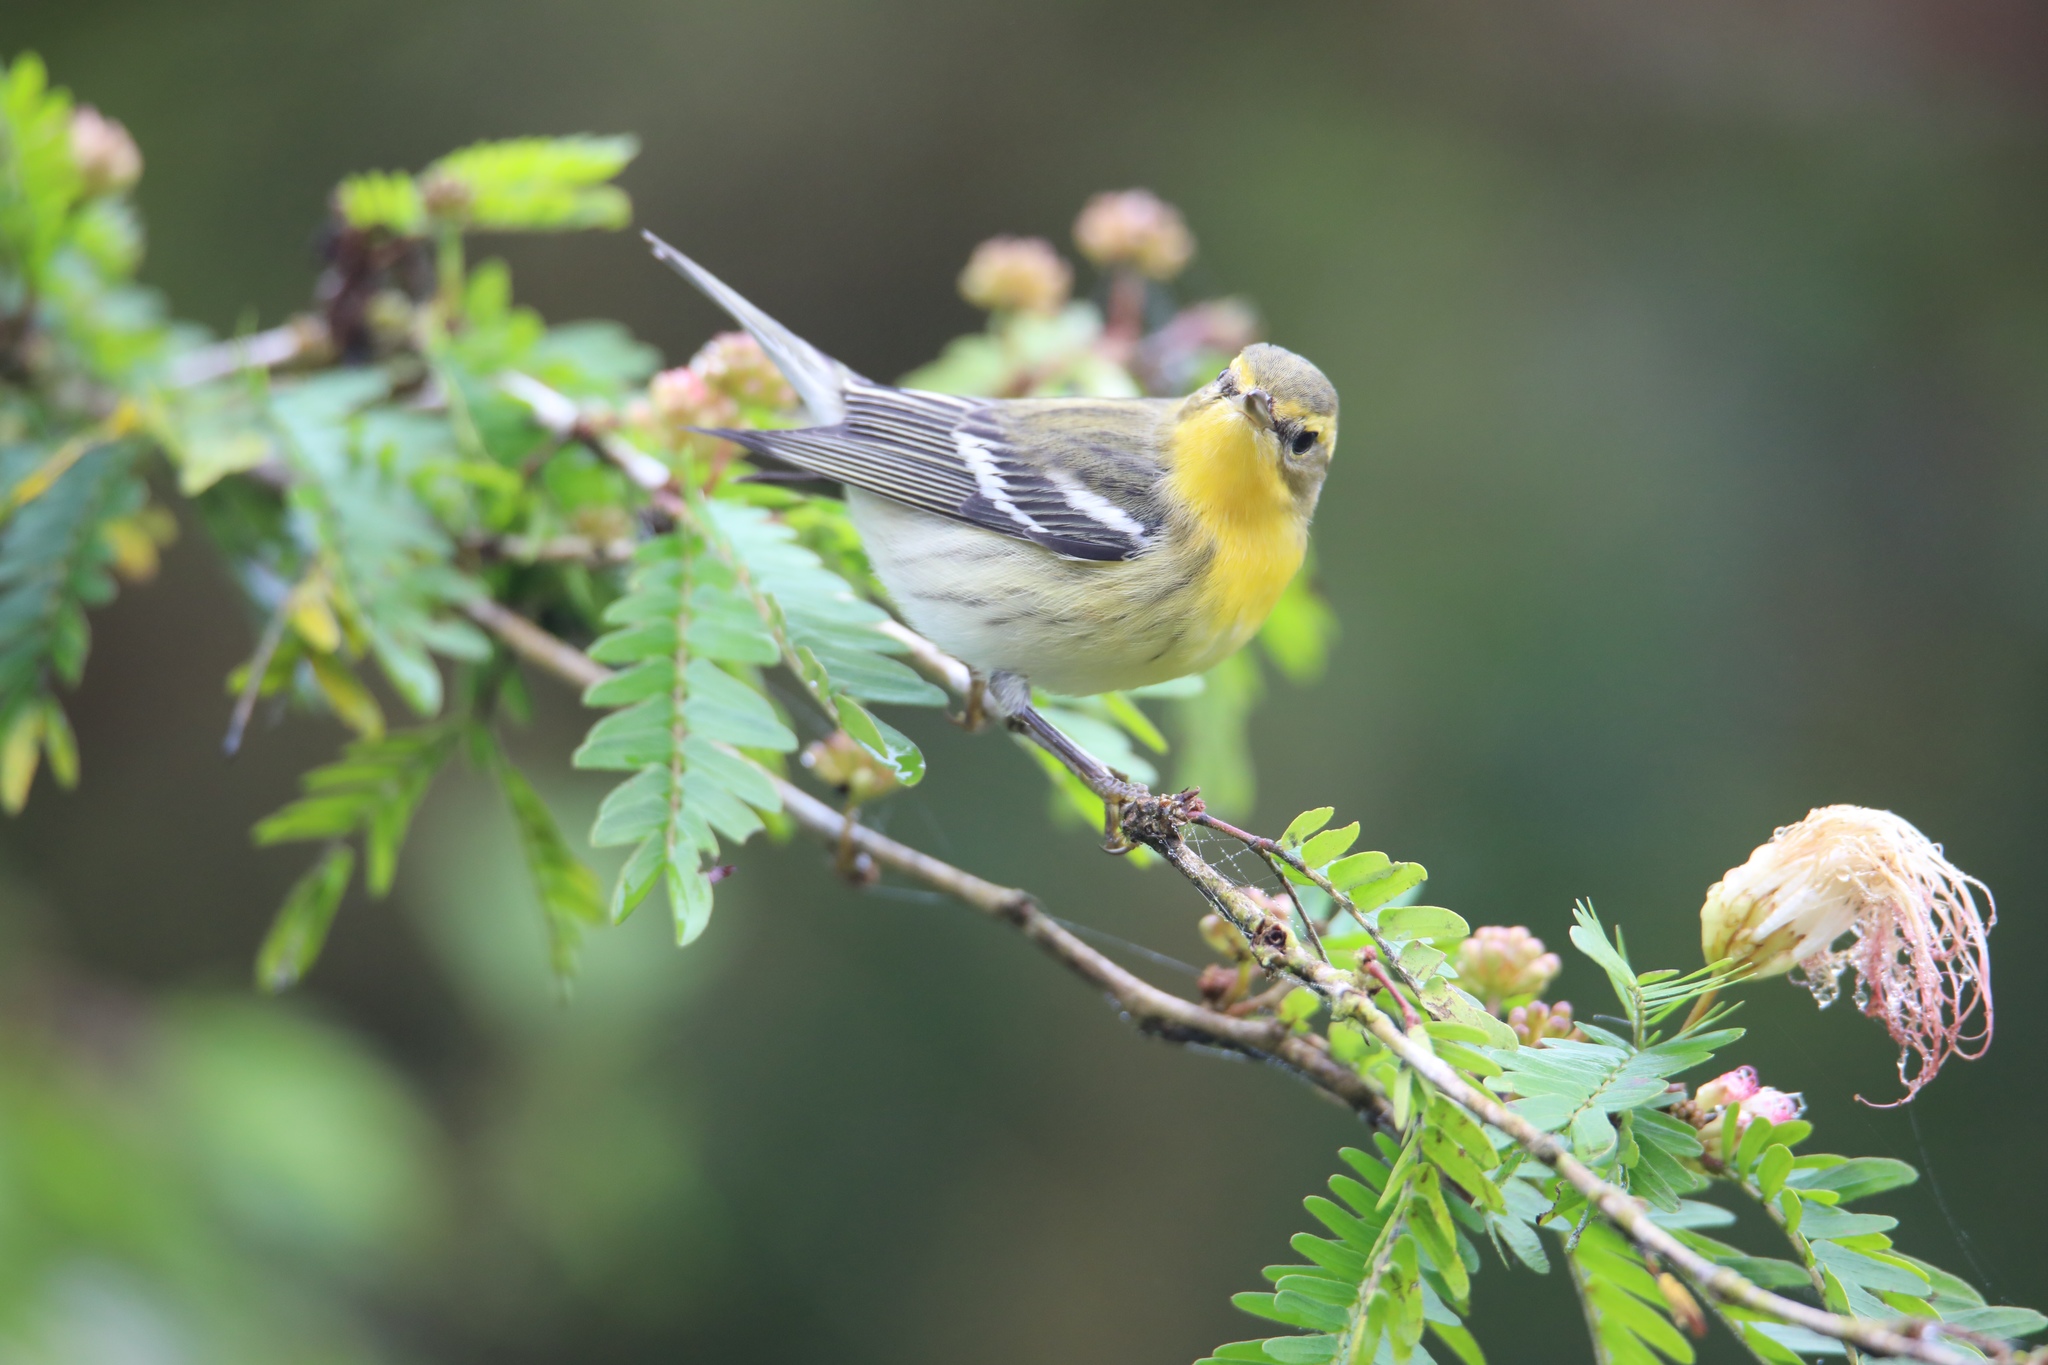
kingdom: Animalia
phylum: Chordata
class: Aves
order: Passeriformes
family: Parulidae
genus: Setophaga
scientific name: Setophaga fusca
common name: Blackburnian warbler
